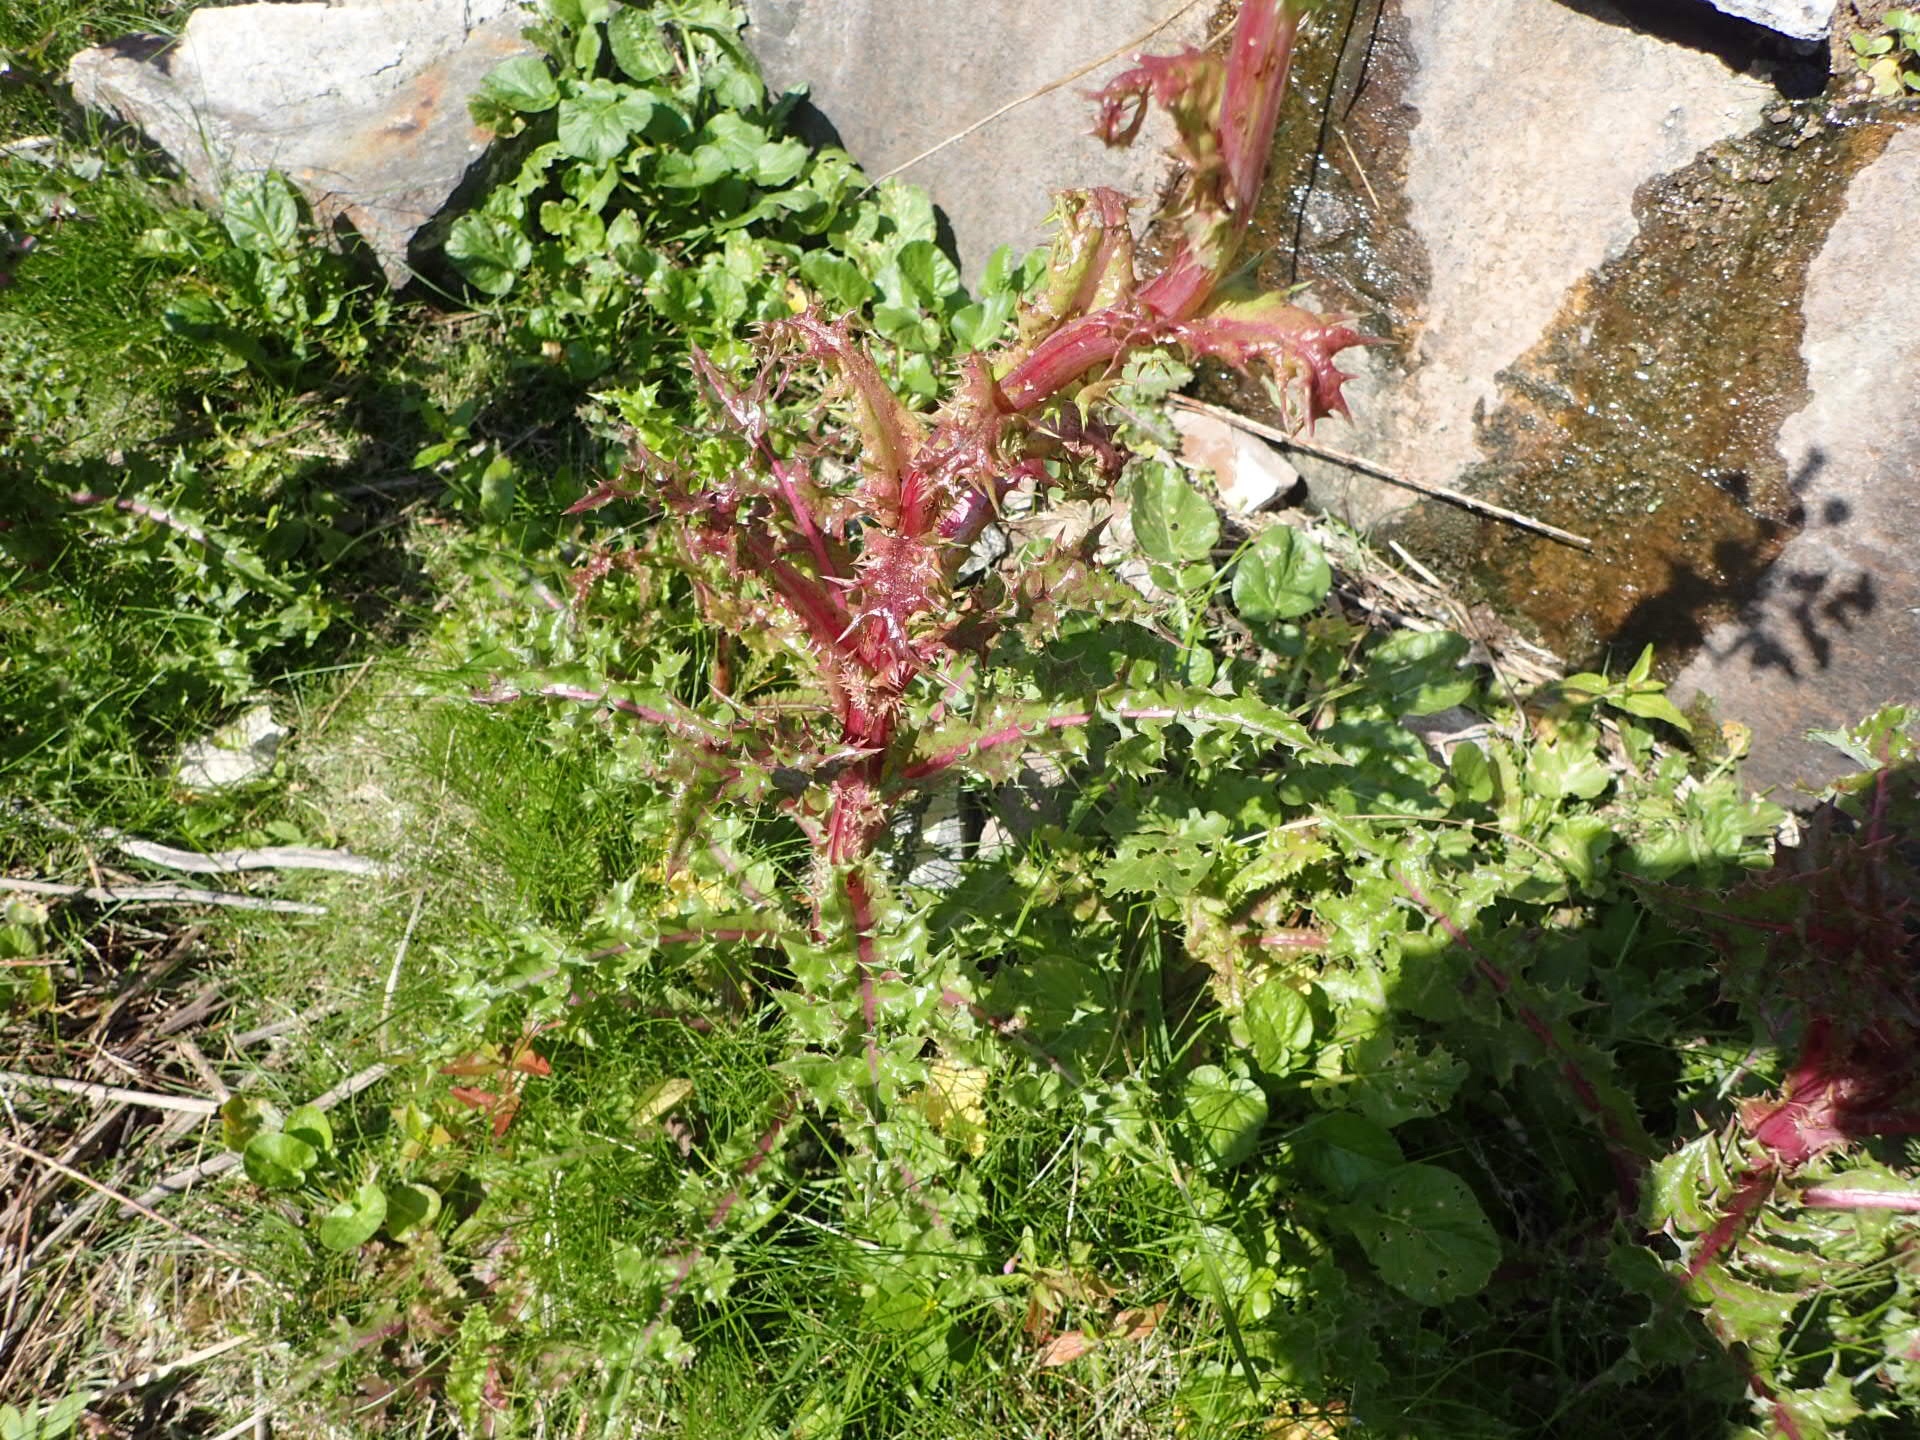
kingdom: Plantae
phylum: Tracheophyta
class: Magnoliopsida
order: Asterales
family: Asteraceae
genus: Sonchus
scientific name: Sonchus asper
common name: Prickly sow-thistle
